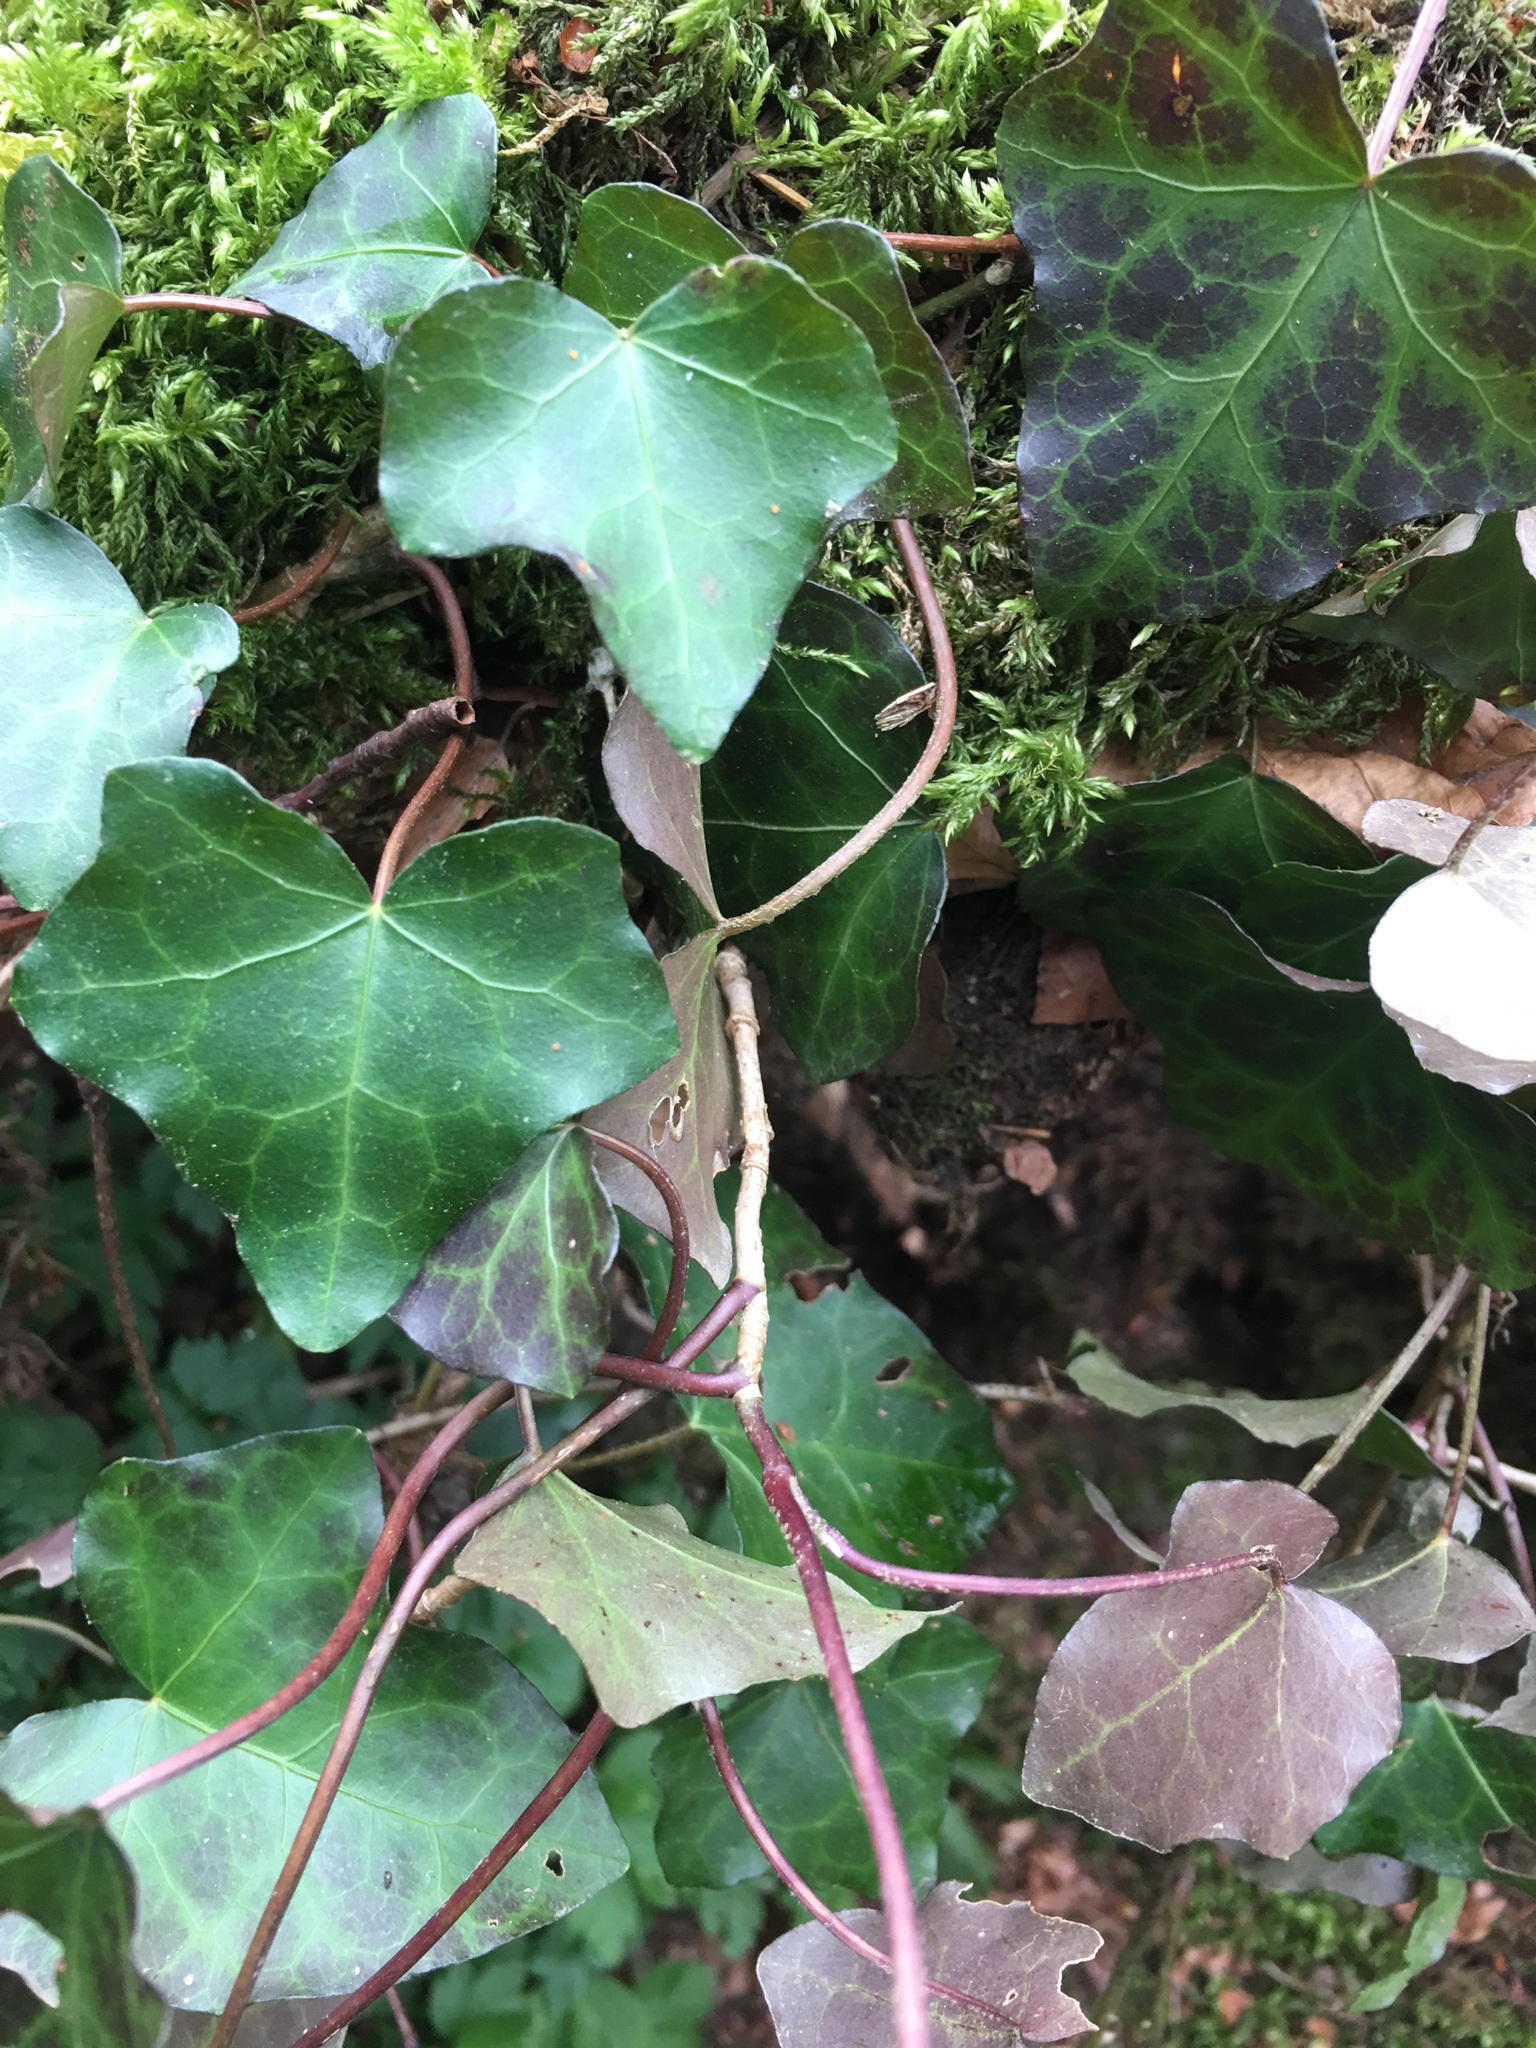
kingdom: Plantae
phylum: Tracheophyta
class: Magnoliopsida
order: Apiales
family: Araliaceae
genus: Hedera
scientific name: Hedera helix
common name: Ivy
